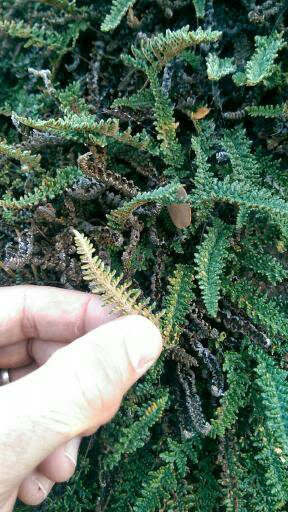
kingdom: Plantae
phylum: Tracheophyta
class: Polypodiopsida
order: Polypodiales
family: Pteridaceae
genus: Myriopteris
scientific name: Myriopteris gracillima
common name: Lace fern
